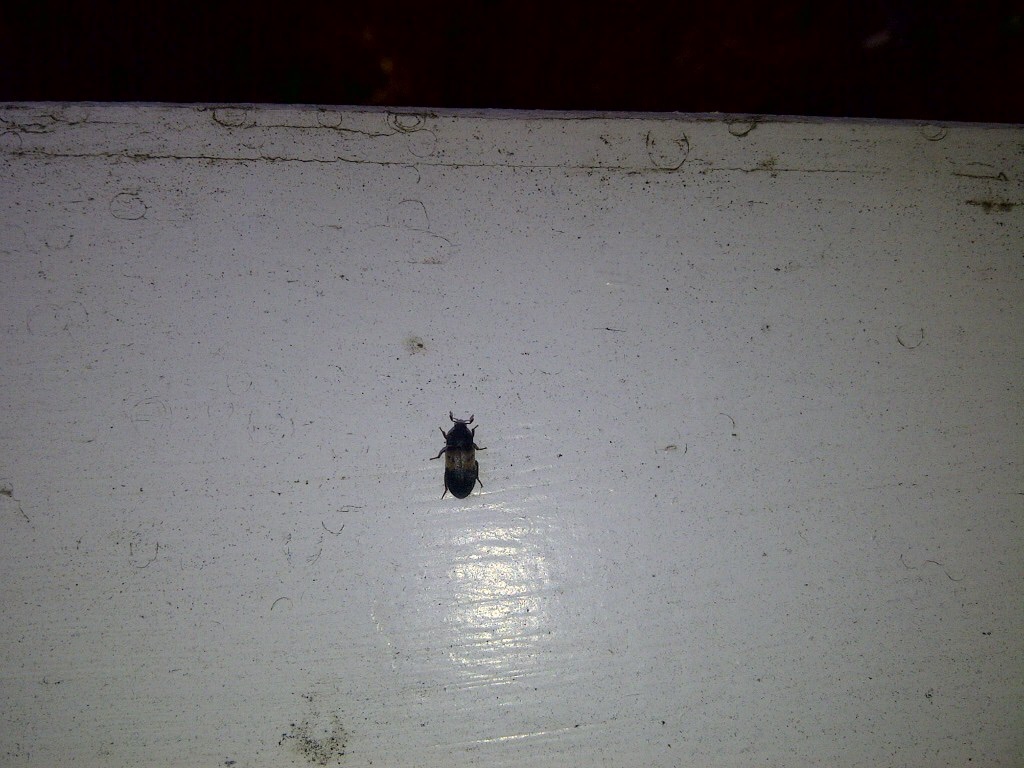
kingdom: Animalia
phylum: Arthropoda
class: Insecta
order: Coleoptera
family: Dermestidae
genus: Dermestes
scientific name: Dermestes lardarius
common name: Larder beetle
